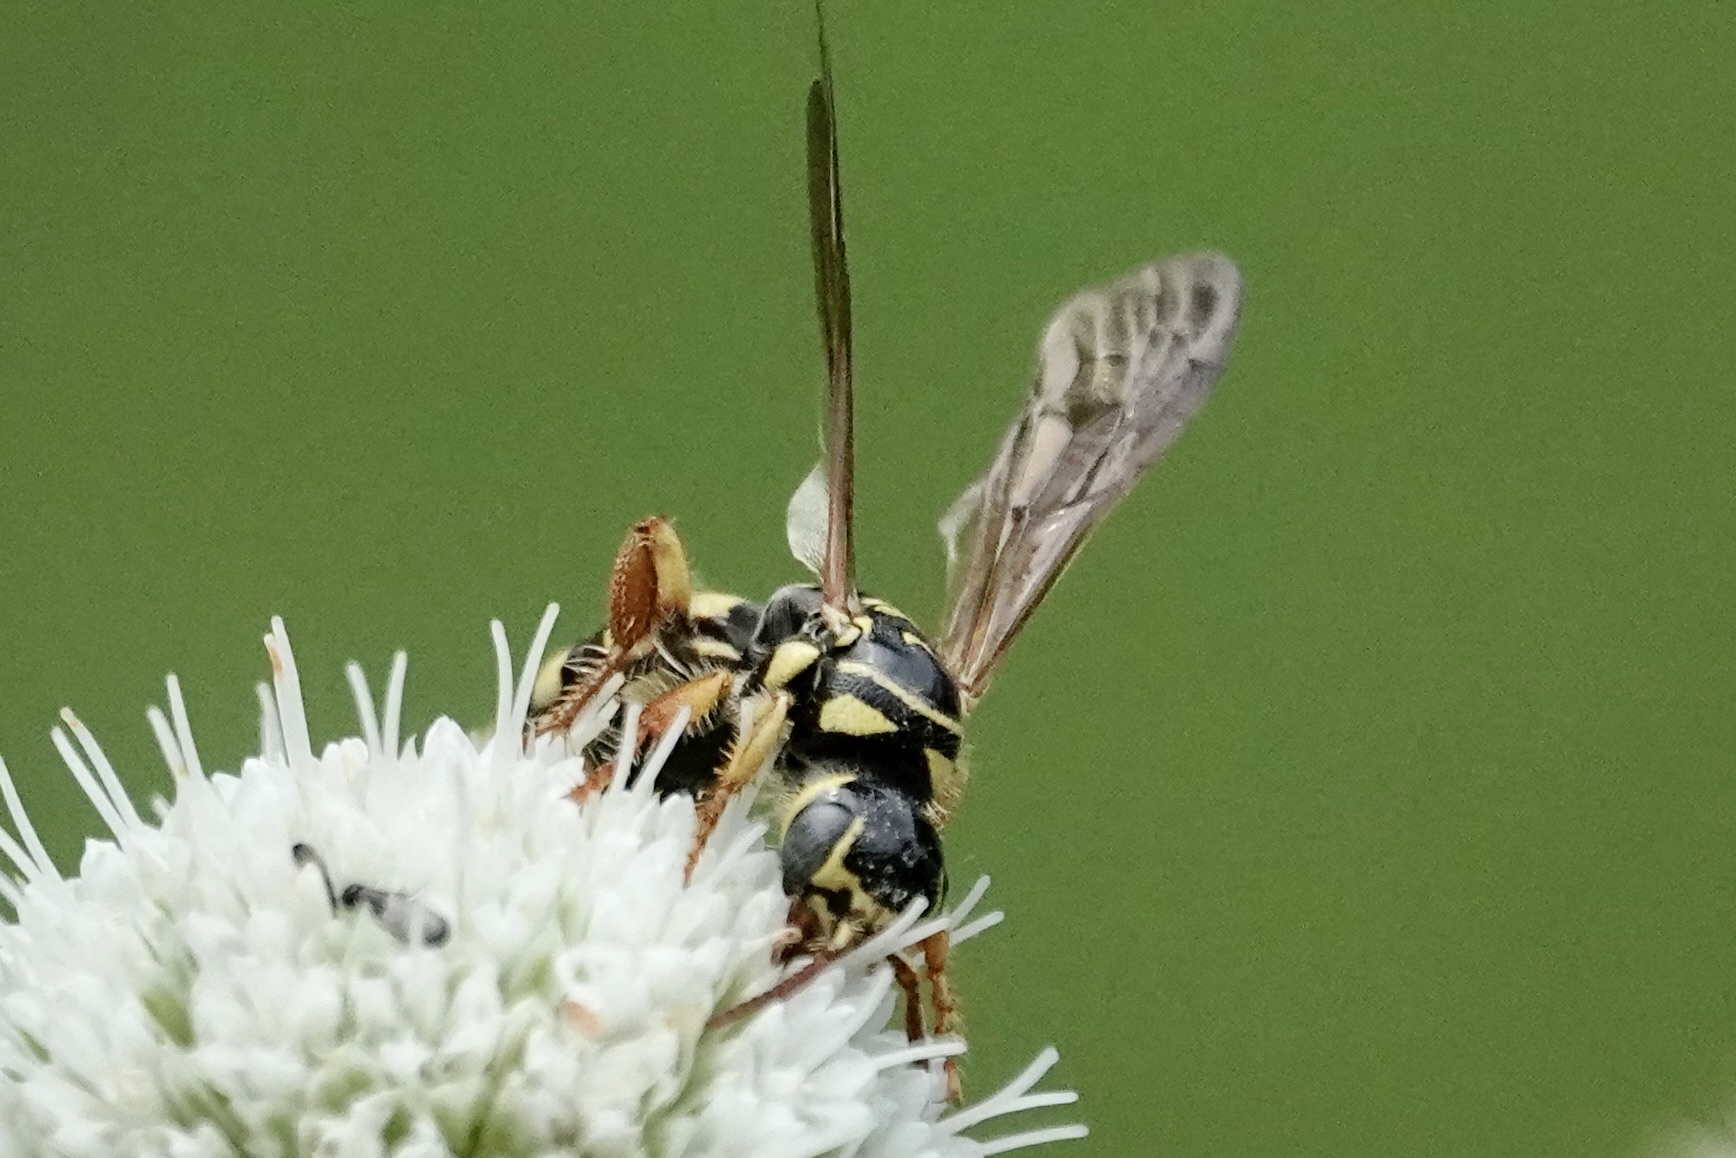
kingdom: Animalia
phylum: Arthropoda
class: Insecta
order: Hymenoptera
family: Tiphiidae
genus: Myzinum
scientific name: Myzinum quinquecinctum
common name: Five-banded thynnid wasp
